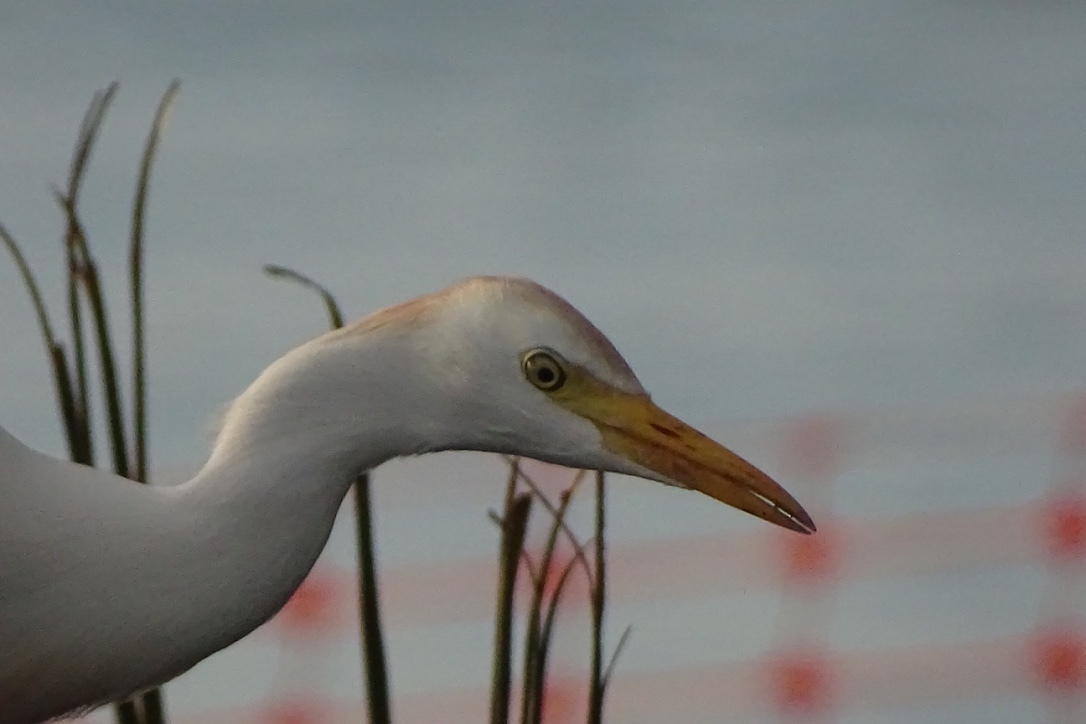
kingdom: Animalia
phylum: Chordata
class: Aves
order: Pelecaniformes
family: Ardeidae
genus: Bubulcus
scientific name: Bubulcus ibis
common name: Cattle egret
